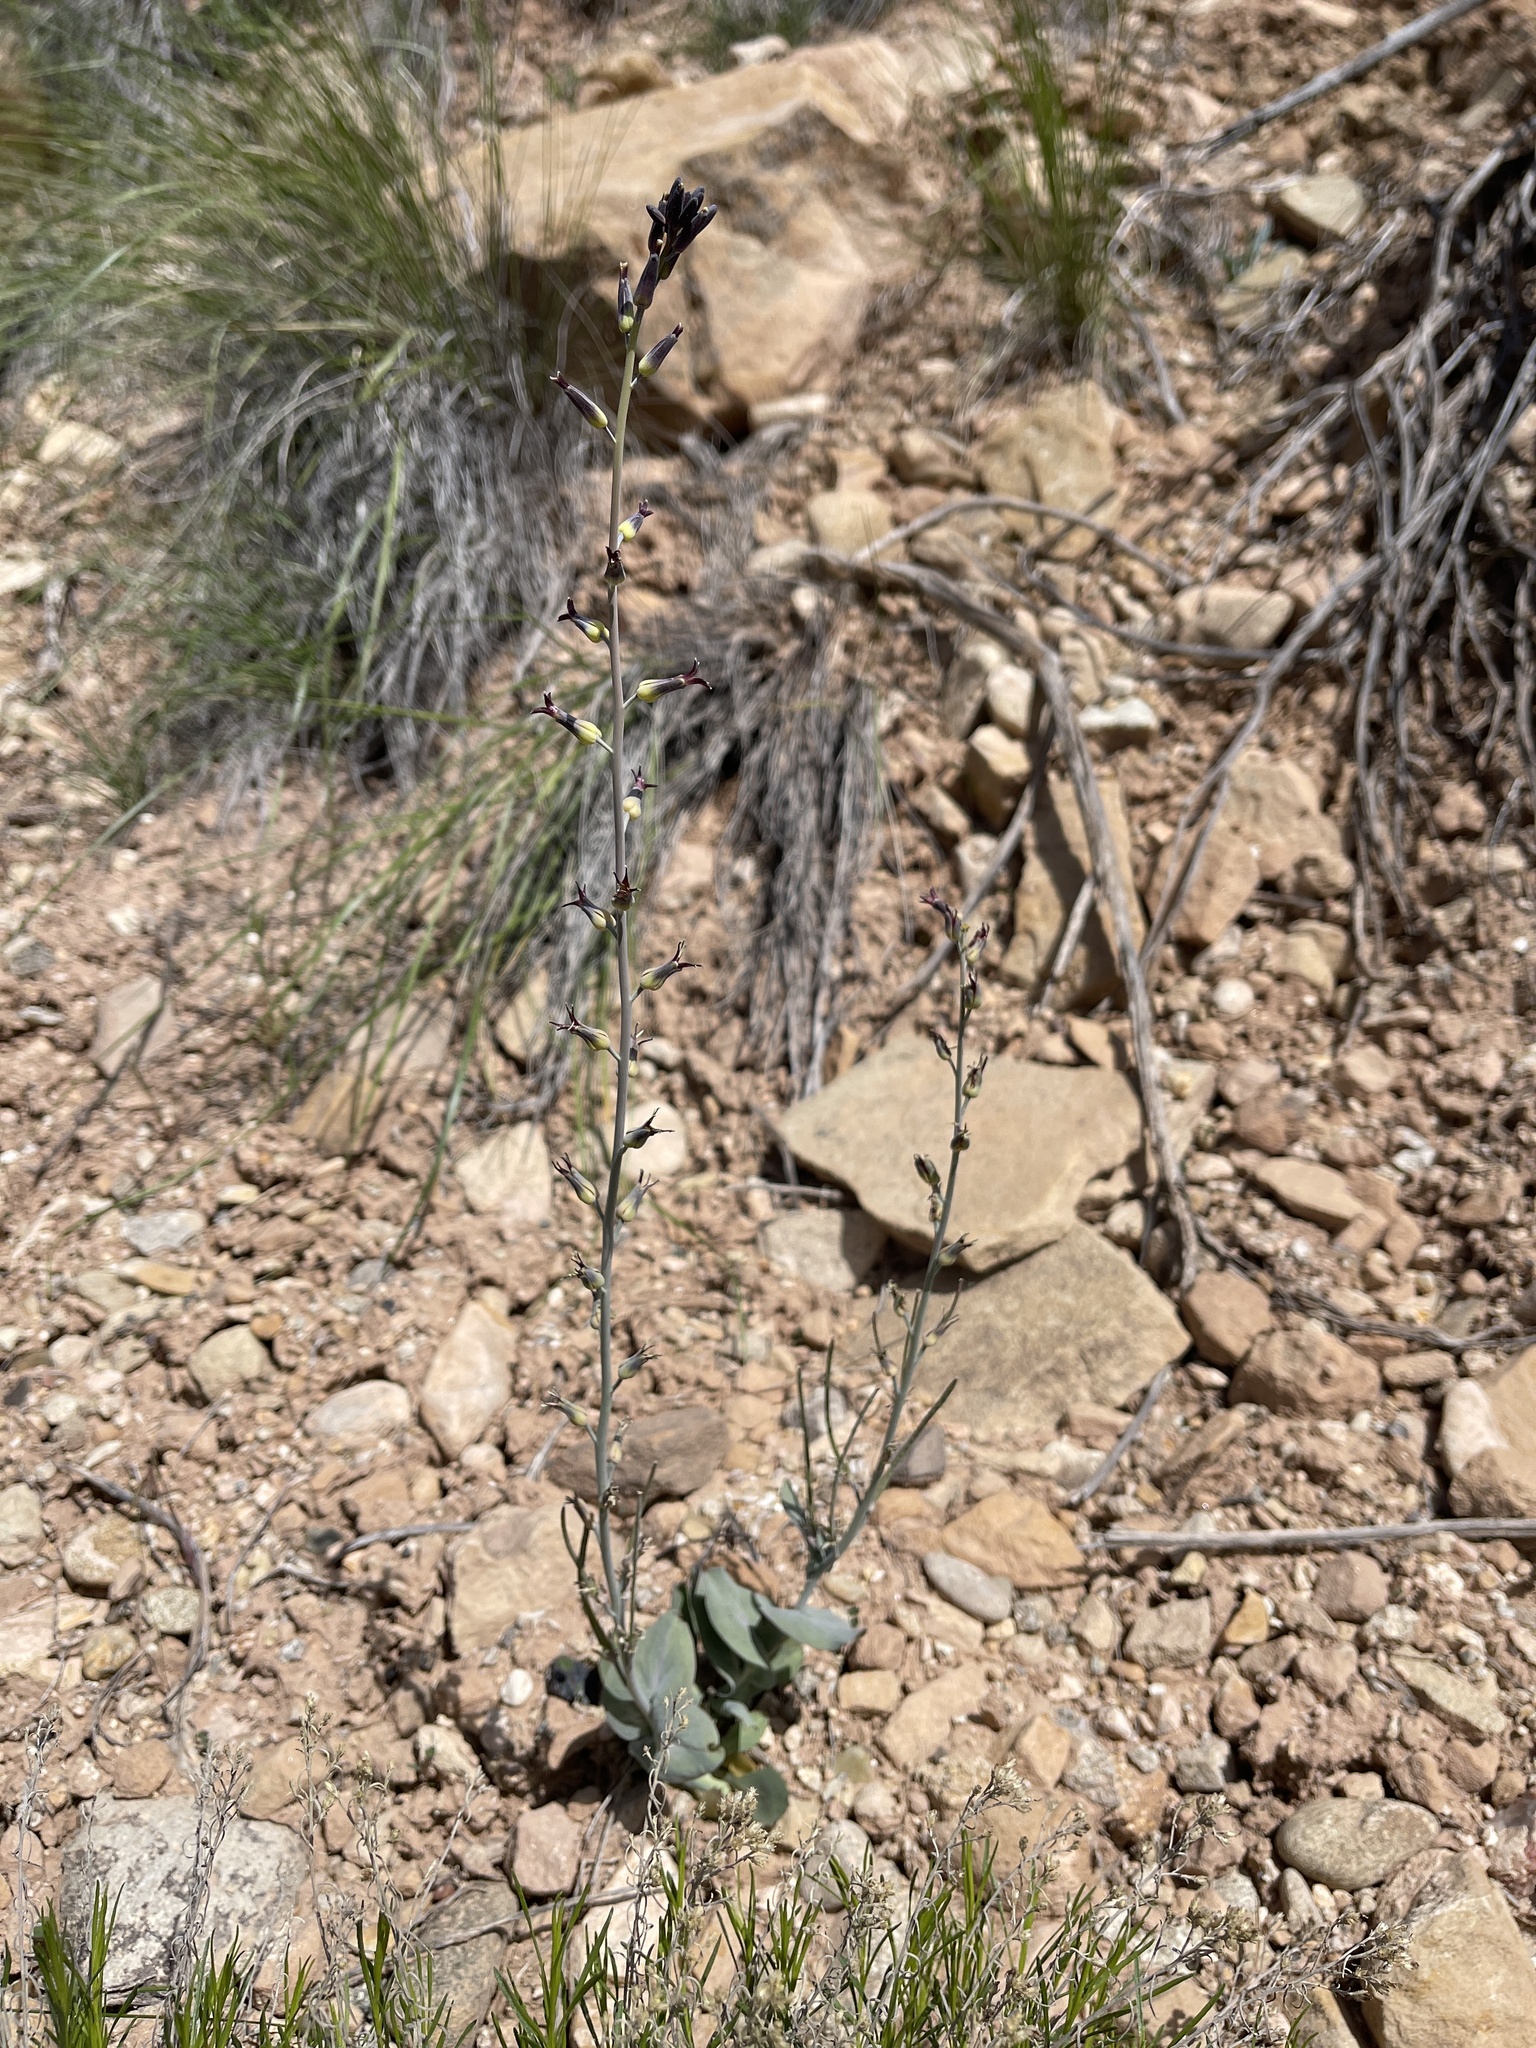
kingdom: Plantae
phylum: Tracheophyta
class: Magnoliopsida
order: Brassicales
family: Brassicaceae
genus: Streptanthus
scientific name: Streptanthus cordatus
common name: Heart-leaf jewel-flower
